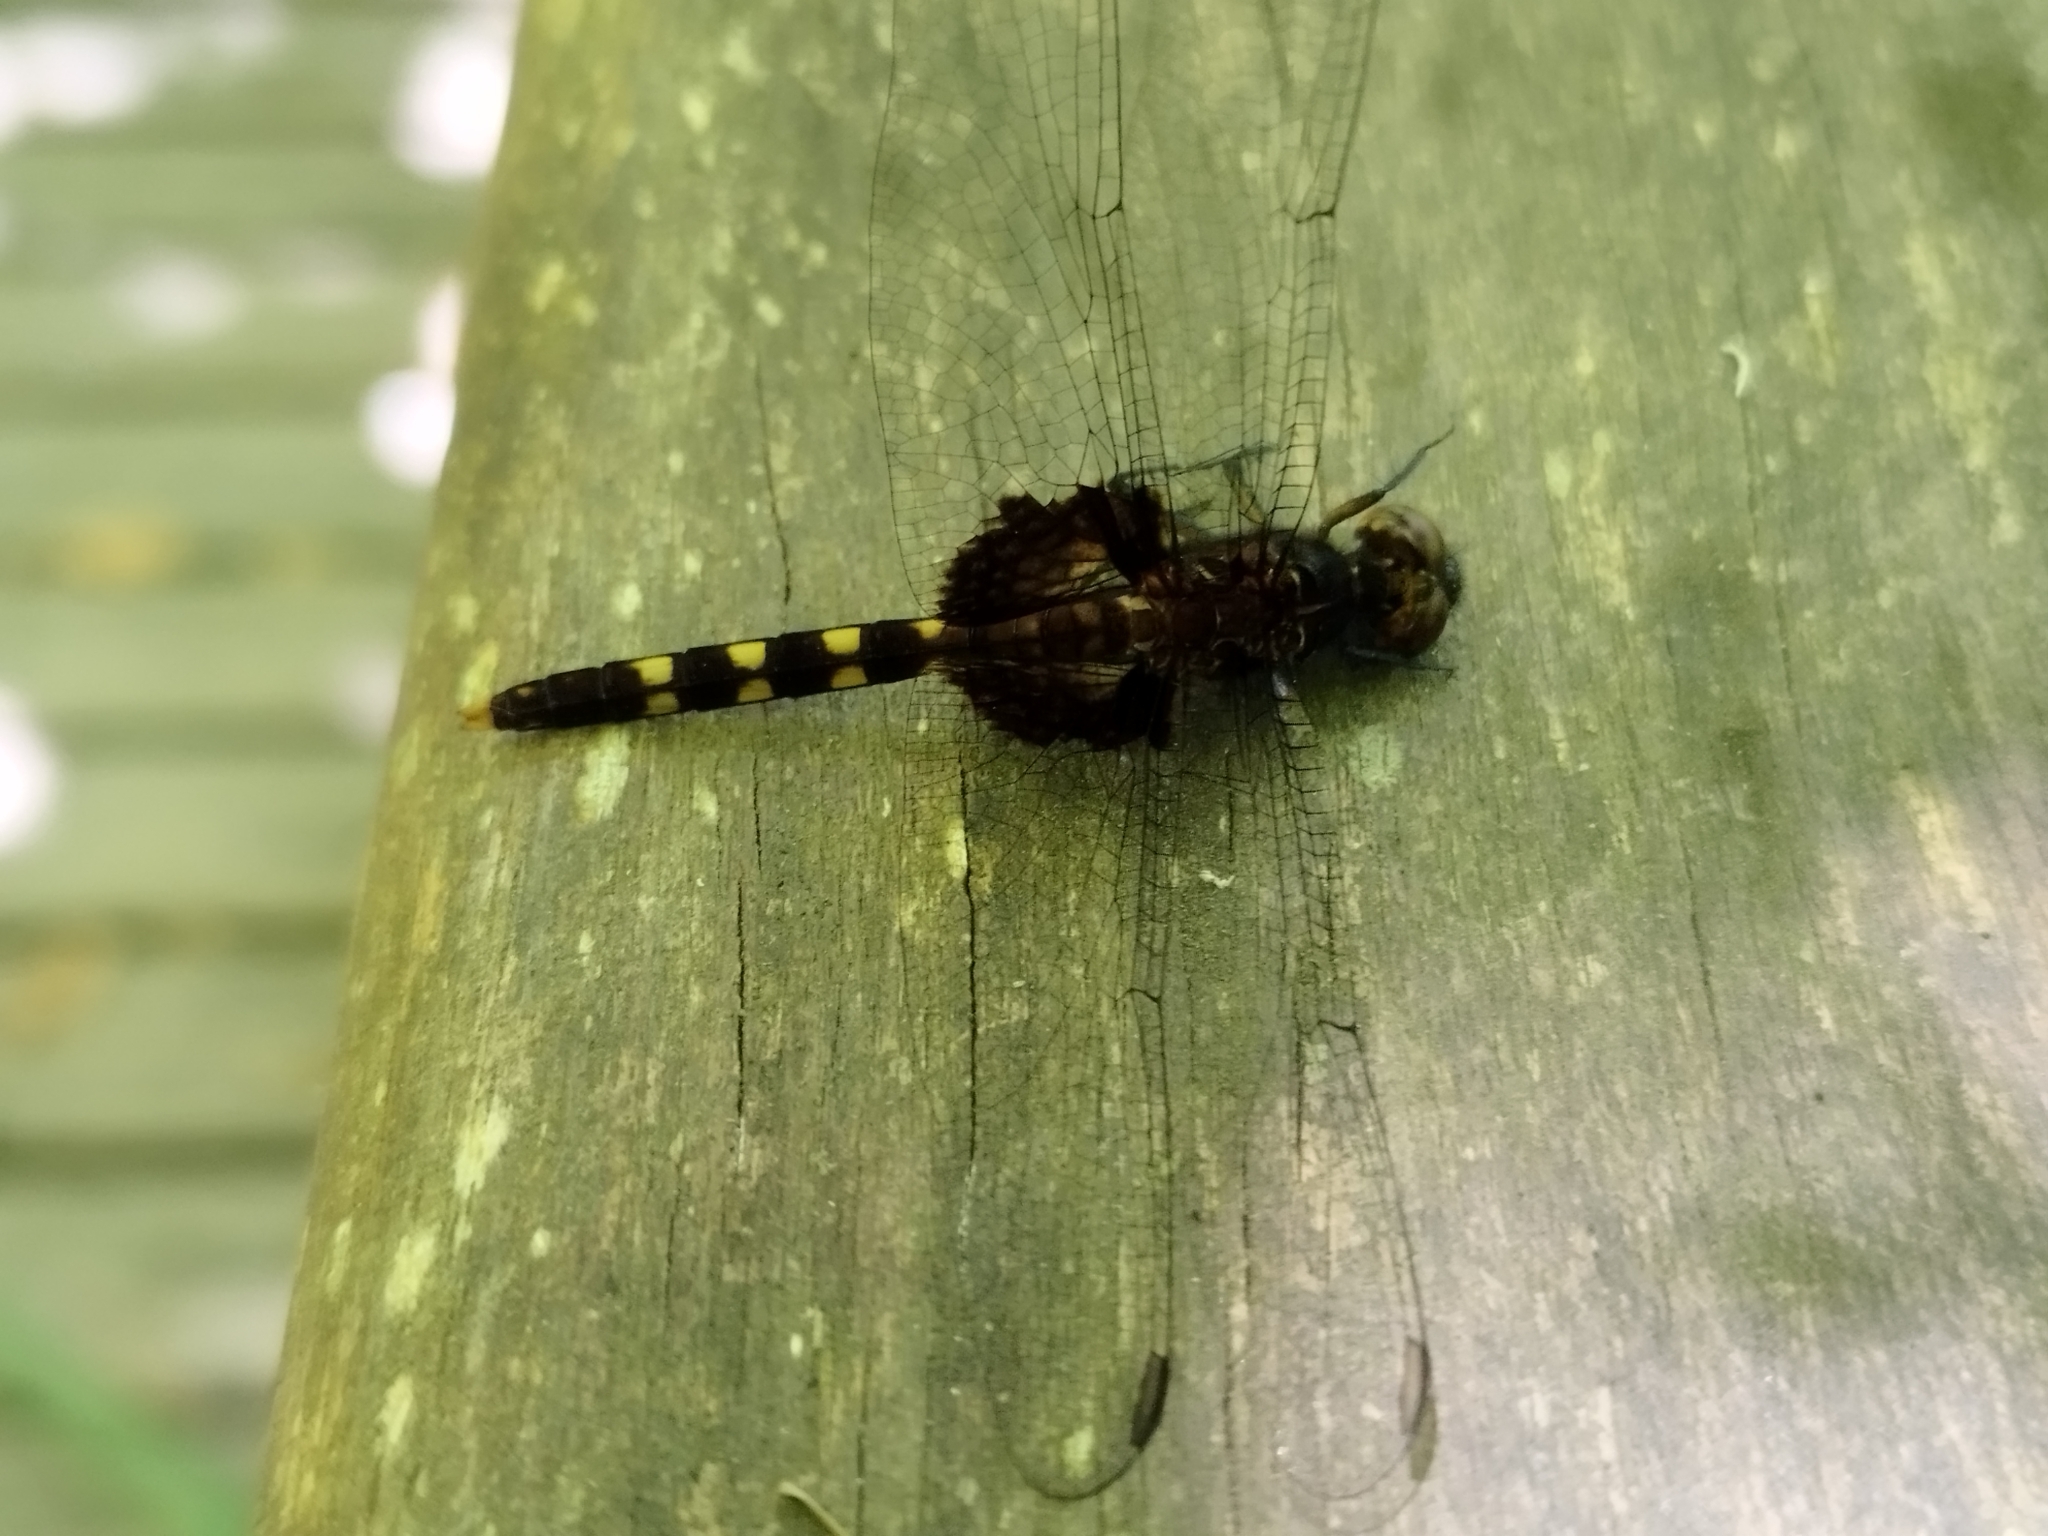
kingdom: Animalia
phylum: Arthropoda
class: Insecta
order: Odonata
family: Libellulidae
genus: Erythemis
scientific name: Erythemis attala
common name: Black pondhawk
